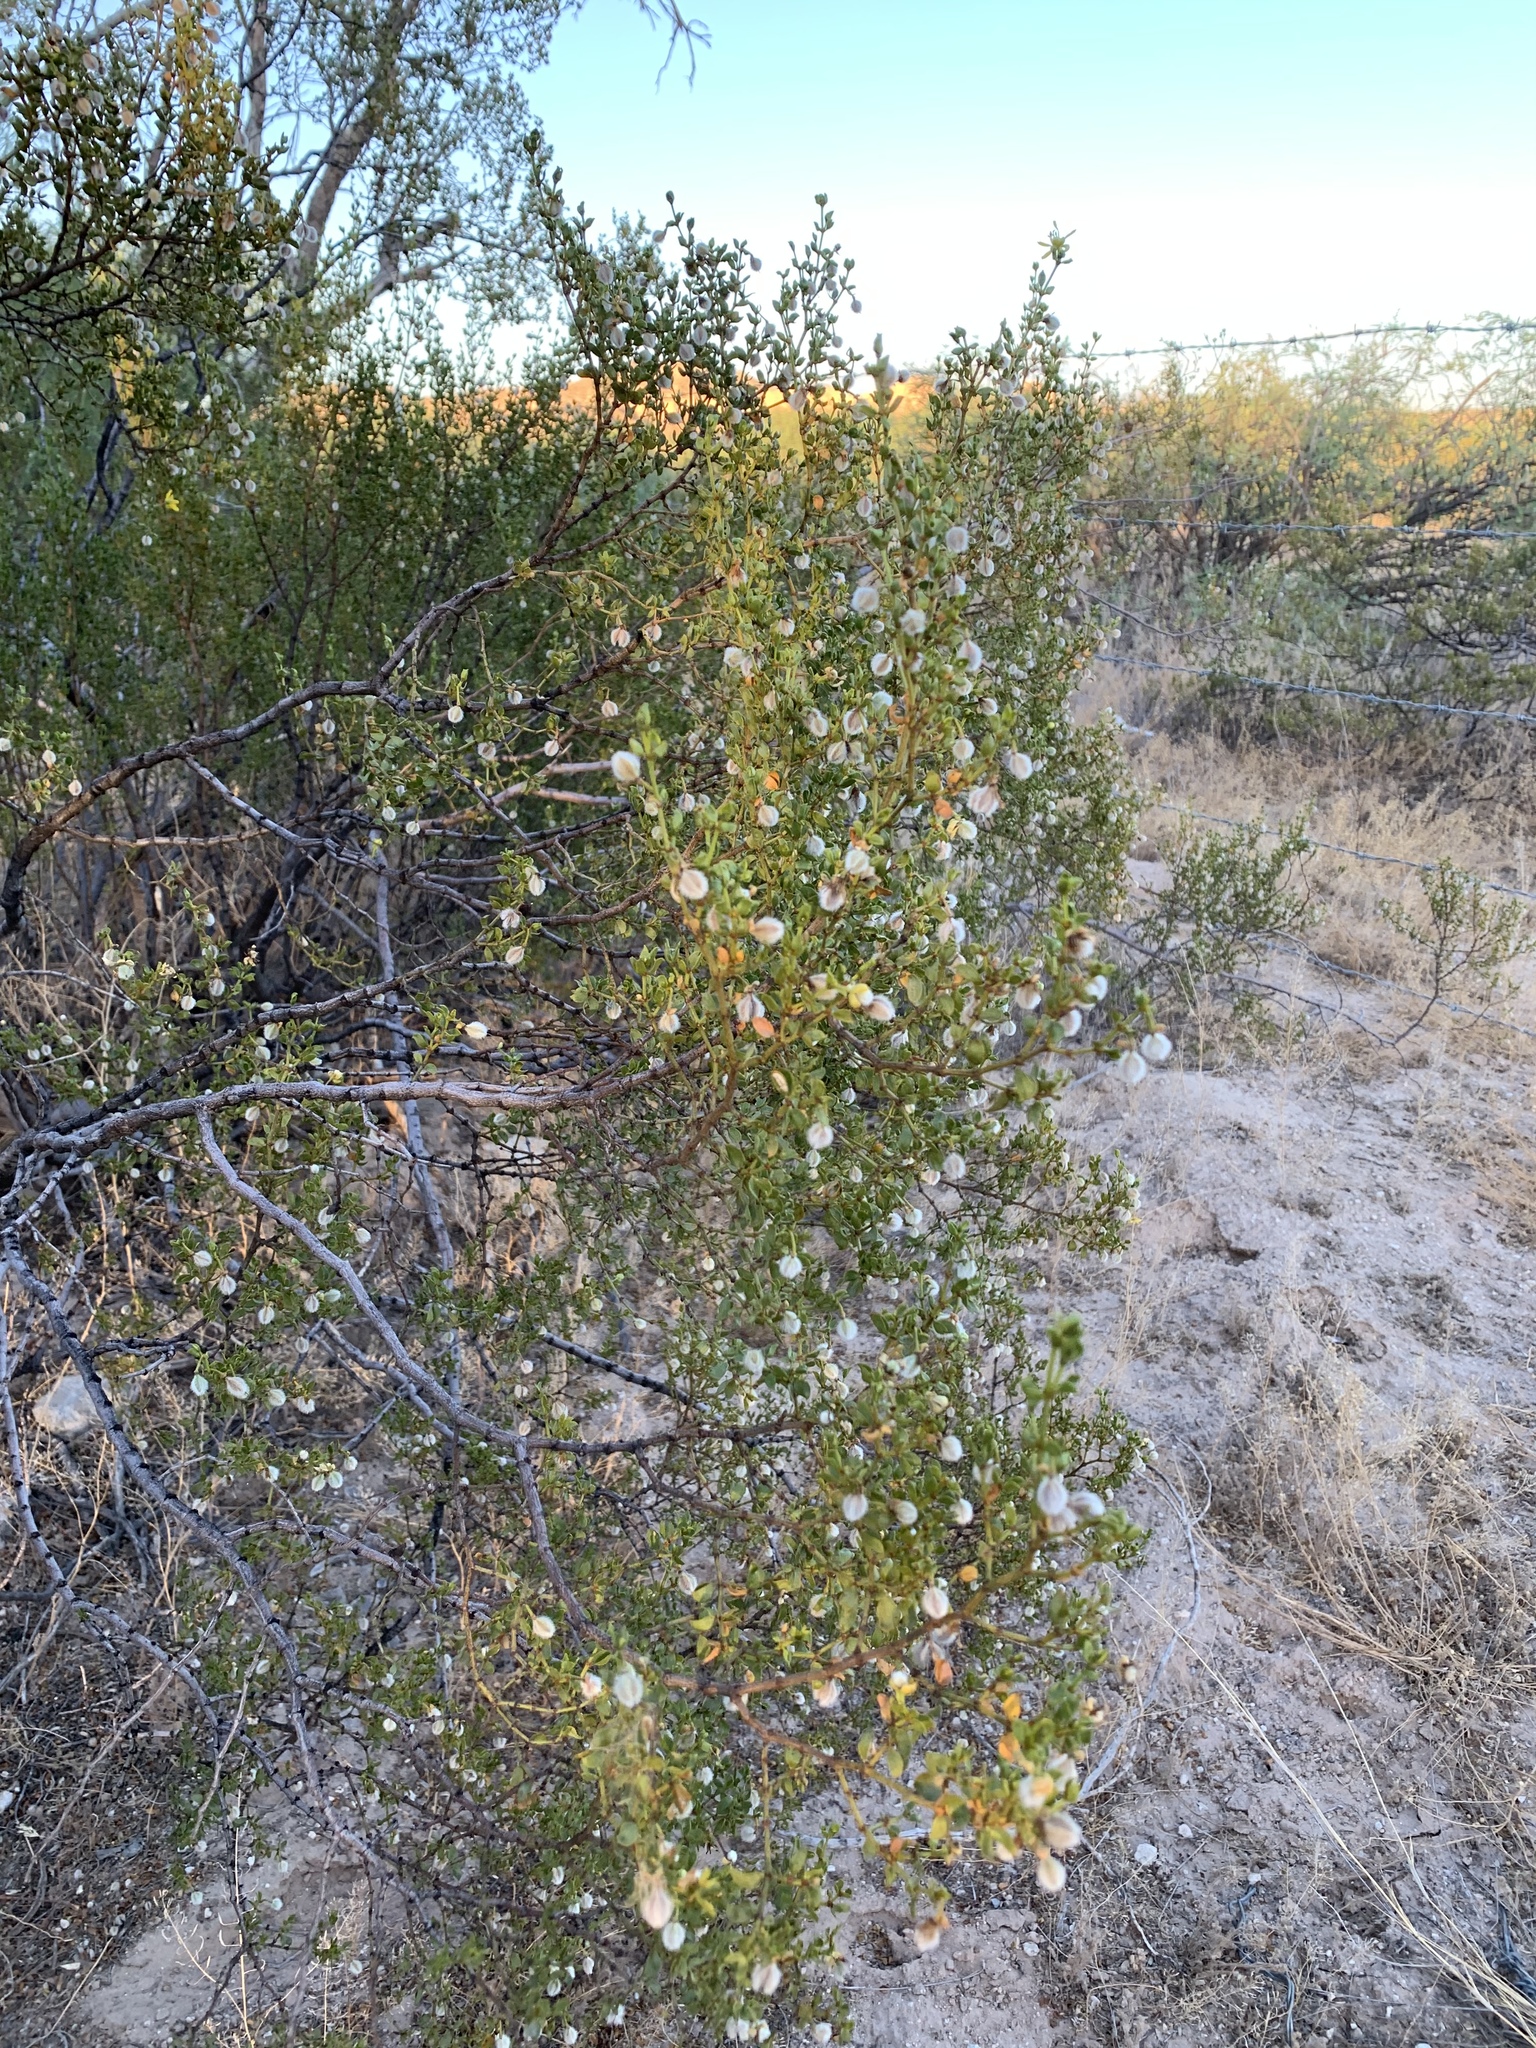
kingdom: Plantae
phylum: Tracheophyta
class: Magnoliopsida
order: Zygophyllales
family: Zygophyllaceae
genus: Larrea
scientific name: Larrea tridentata
